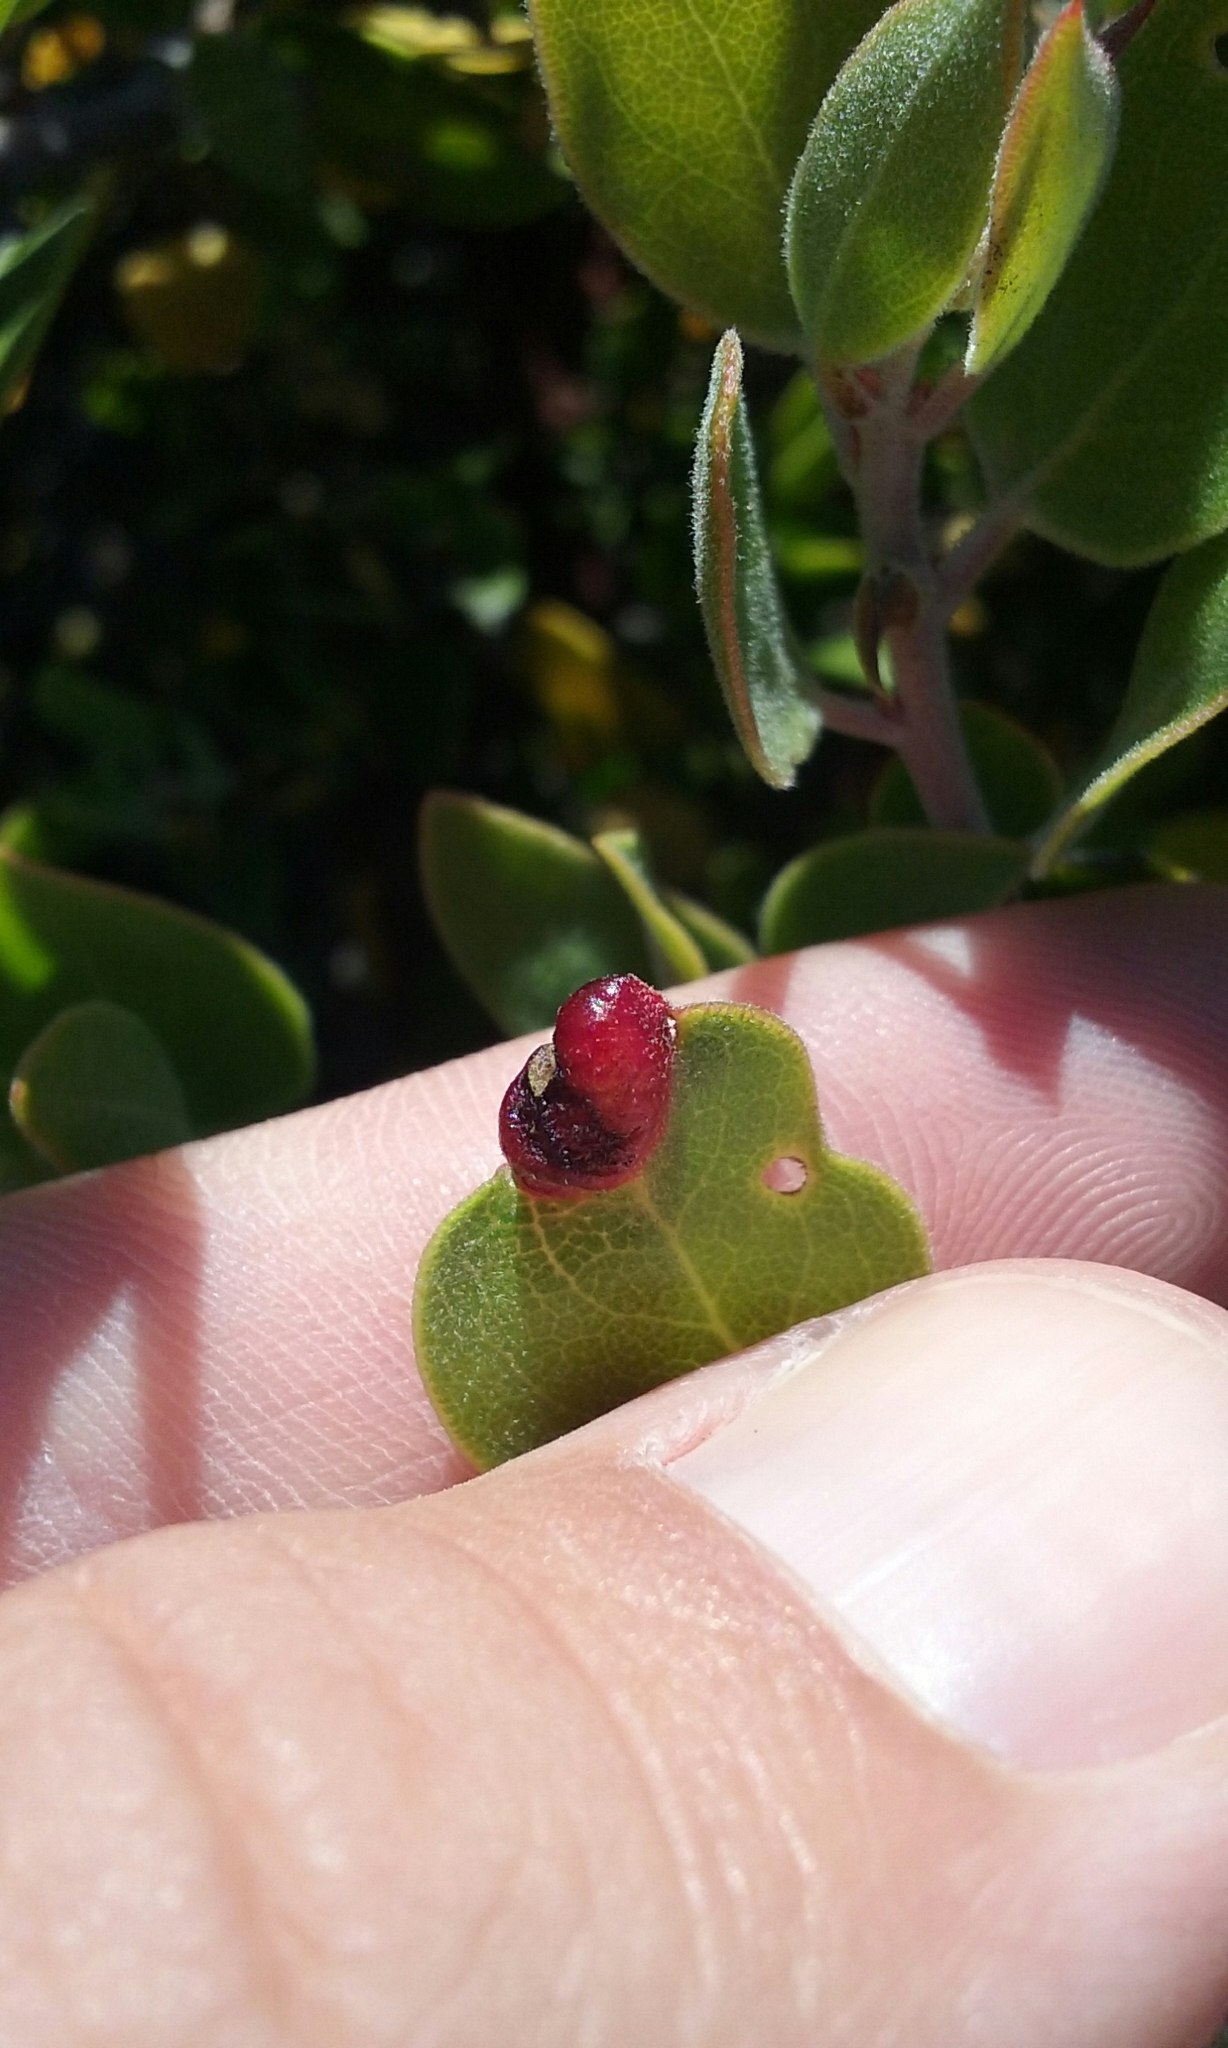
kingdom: Animalia
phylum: Arthropoda
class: Insecta
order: Hemiptera
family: Aphididae
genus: Tamalia
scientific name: Tamalia coweni
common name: Manzanita leafgall aphid
